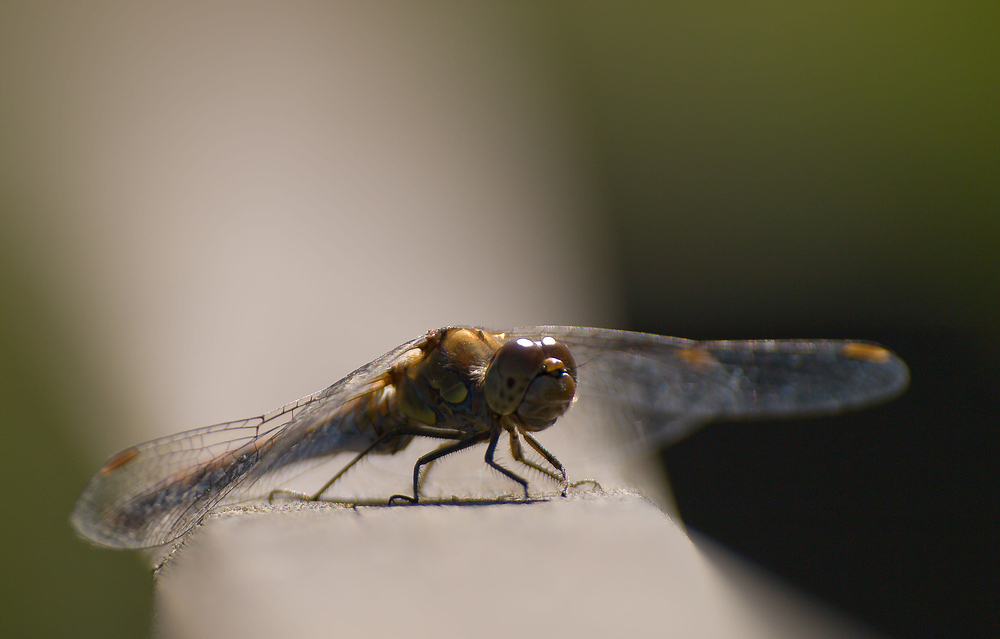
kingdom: Animalia
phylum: Arthropoda
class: Insecta
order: Odonata
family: Libellulidae
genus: Sympetrum
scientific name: Sympetrum striolatum
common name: Common darter
